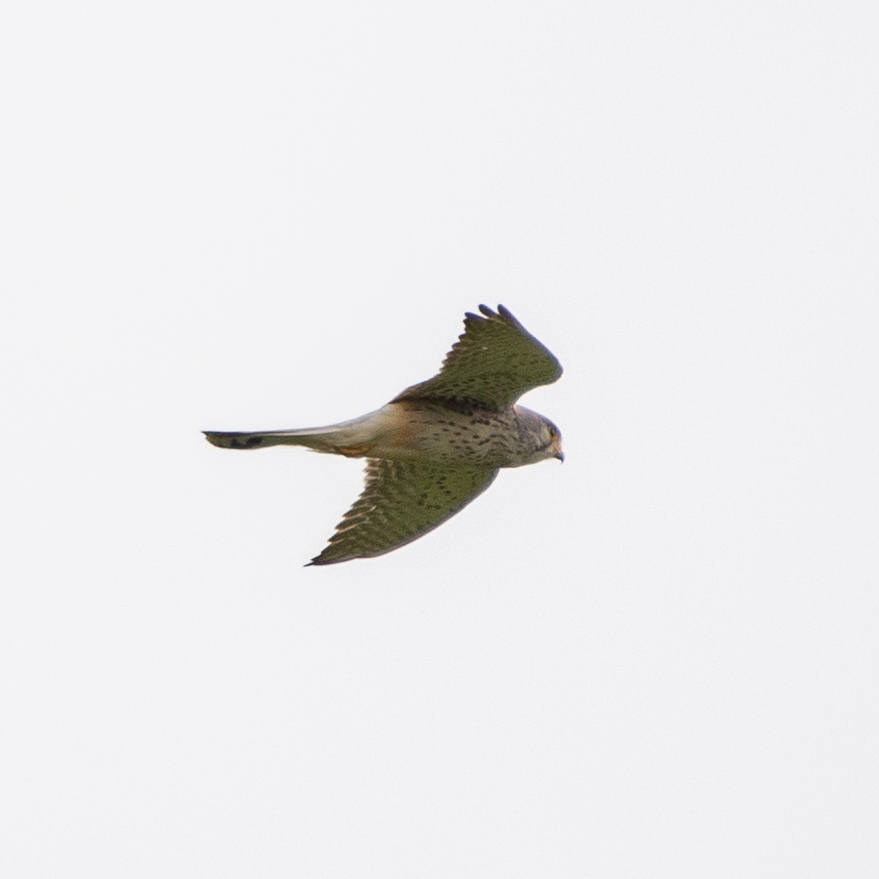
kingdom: Animalia
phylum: Chordata
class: Aves
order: Falconiformes
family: Falconidae
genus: Falco
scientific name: Falco tinnunculus
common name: Common kestrel
